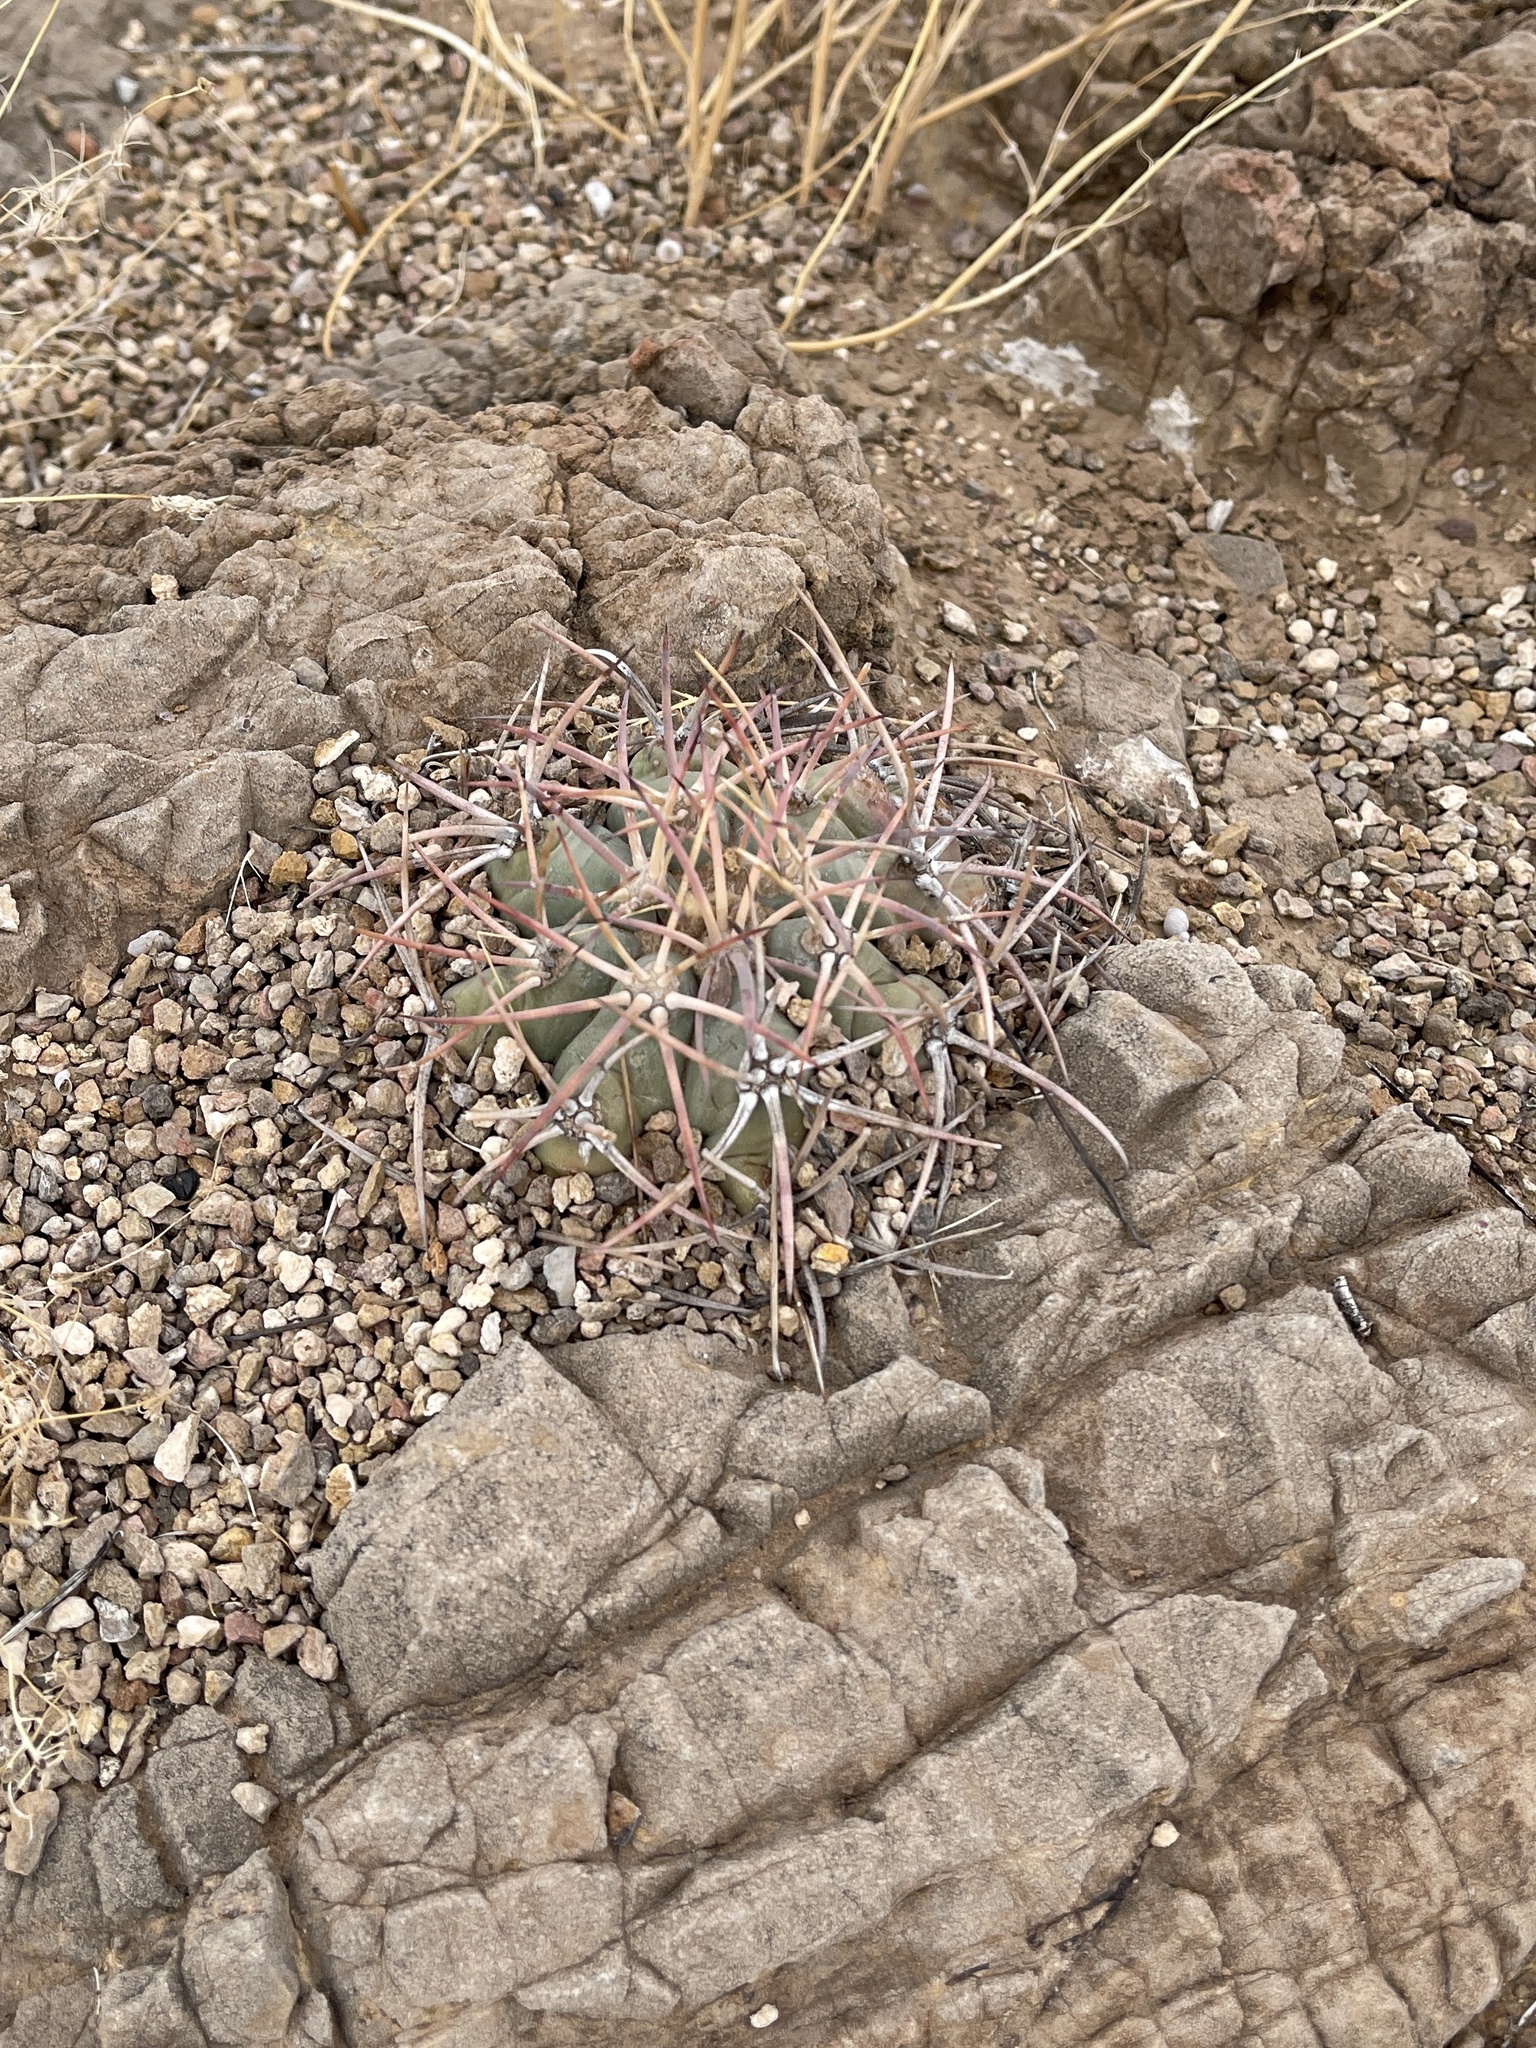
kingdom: Plantae
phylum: Tracheophyta
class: Magnoliopsida
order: Caryophyllales
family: Cactaceae
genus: Echinocactus
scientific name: Echinocactus horizonthalonius
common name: Devilshead
